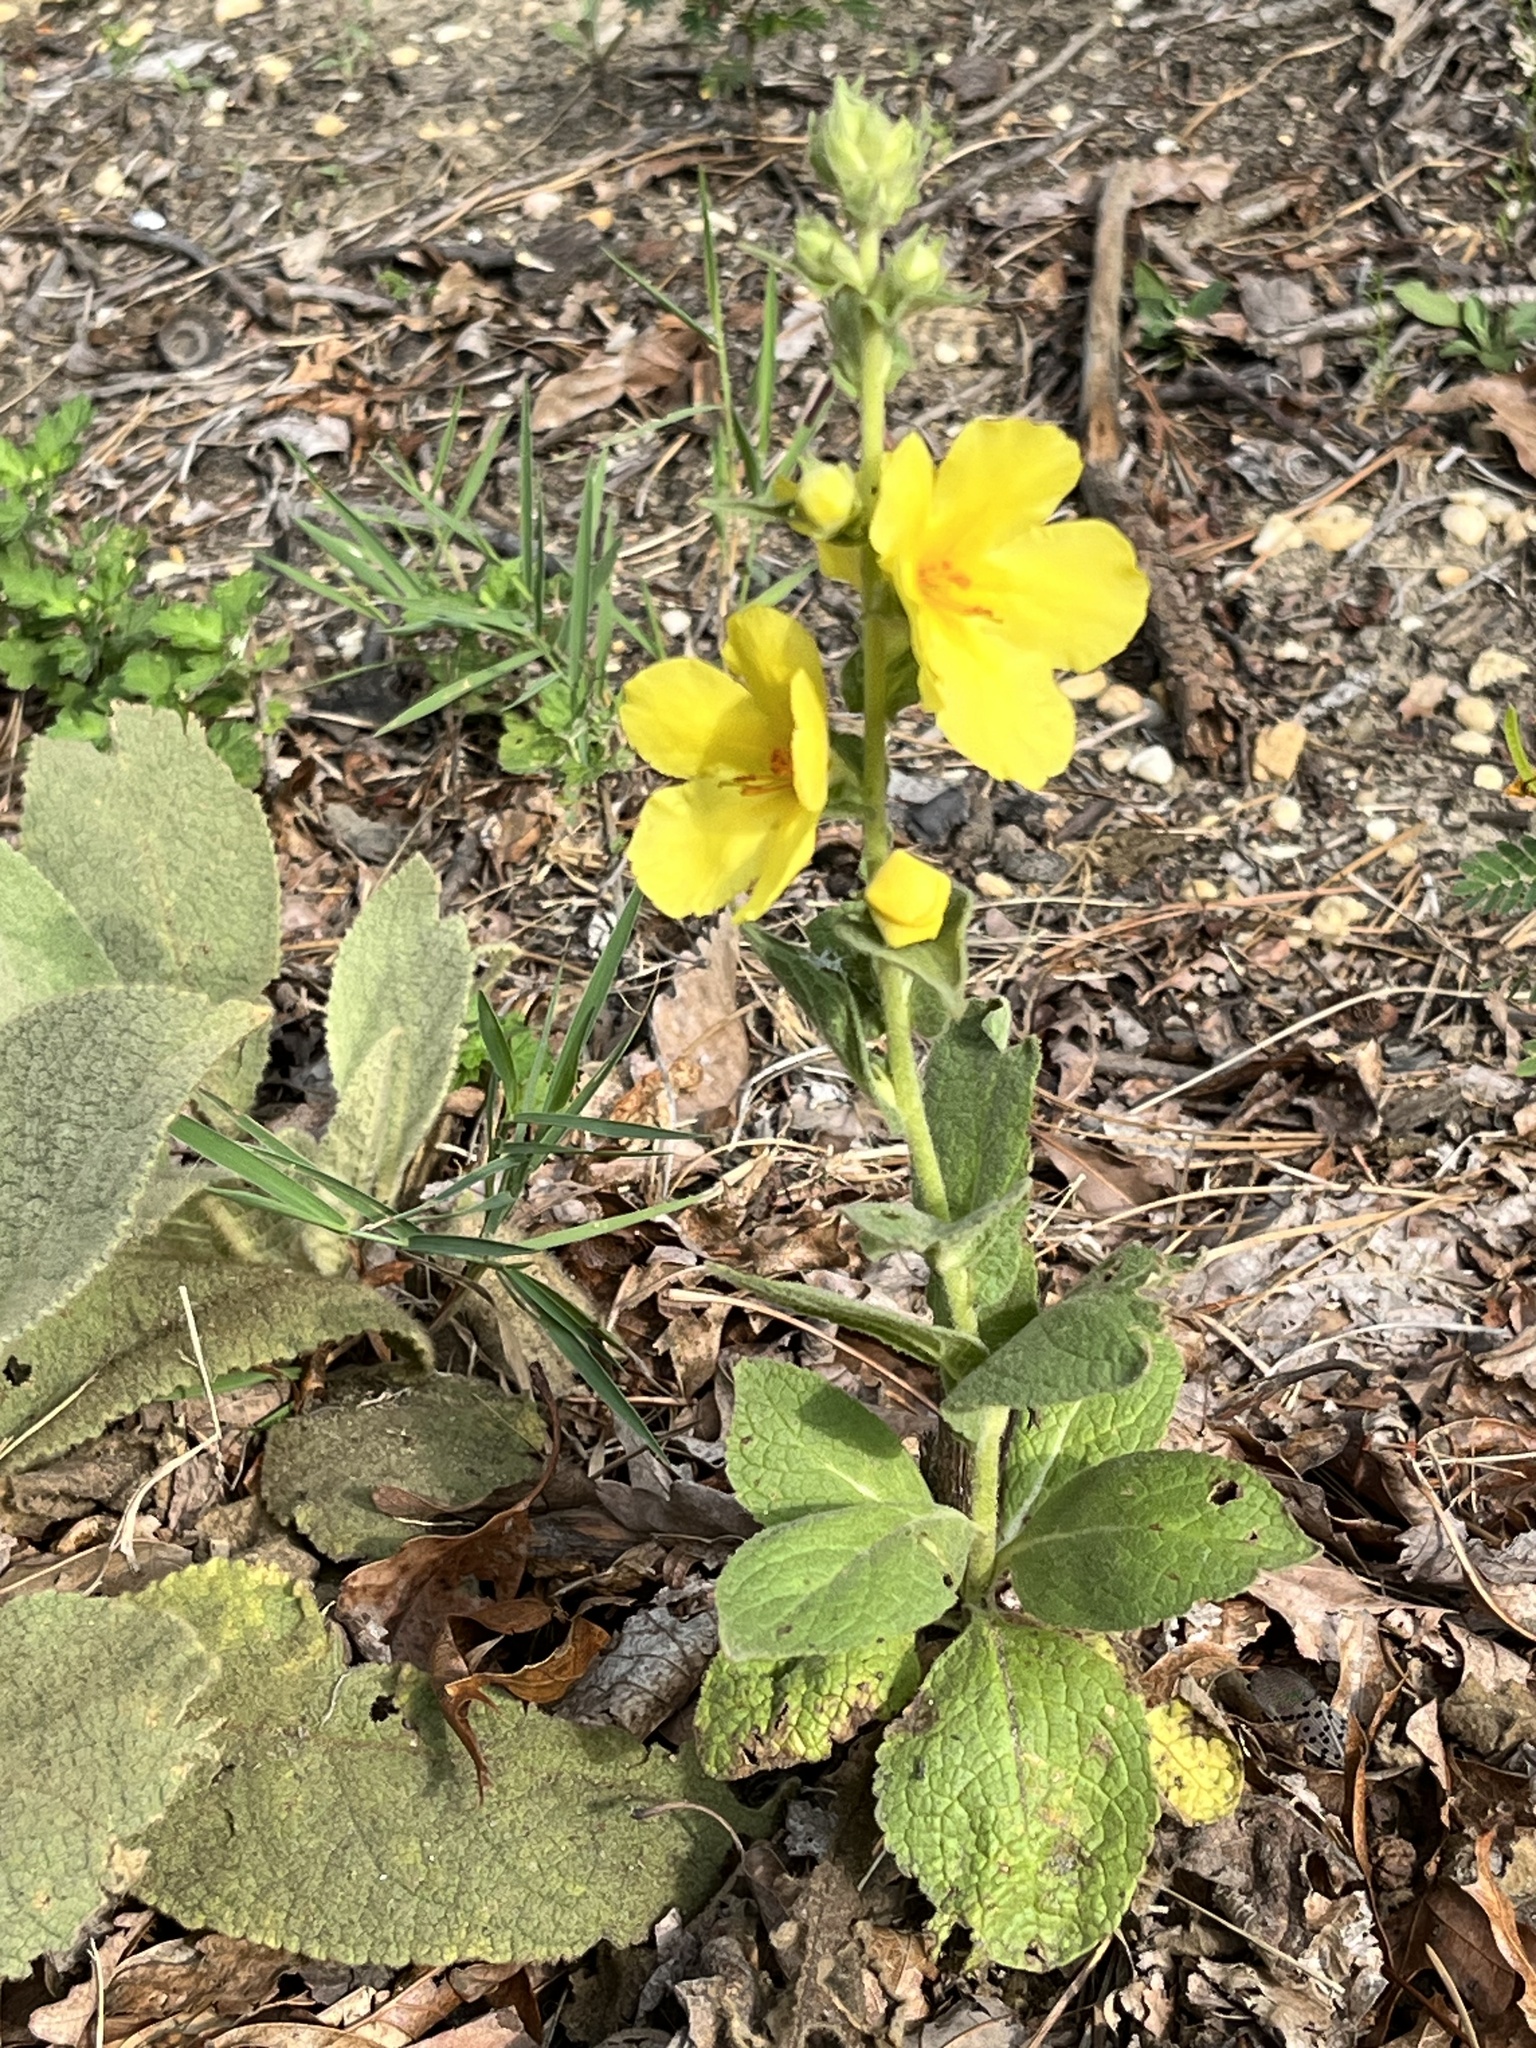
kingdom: Plantae
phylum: Tracheophyta
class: Magnoliopsida
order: Lamiales
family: Scrophulariaceae
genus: Verbascum
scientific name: Verbascum phlomoides
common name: Orange mullein
